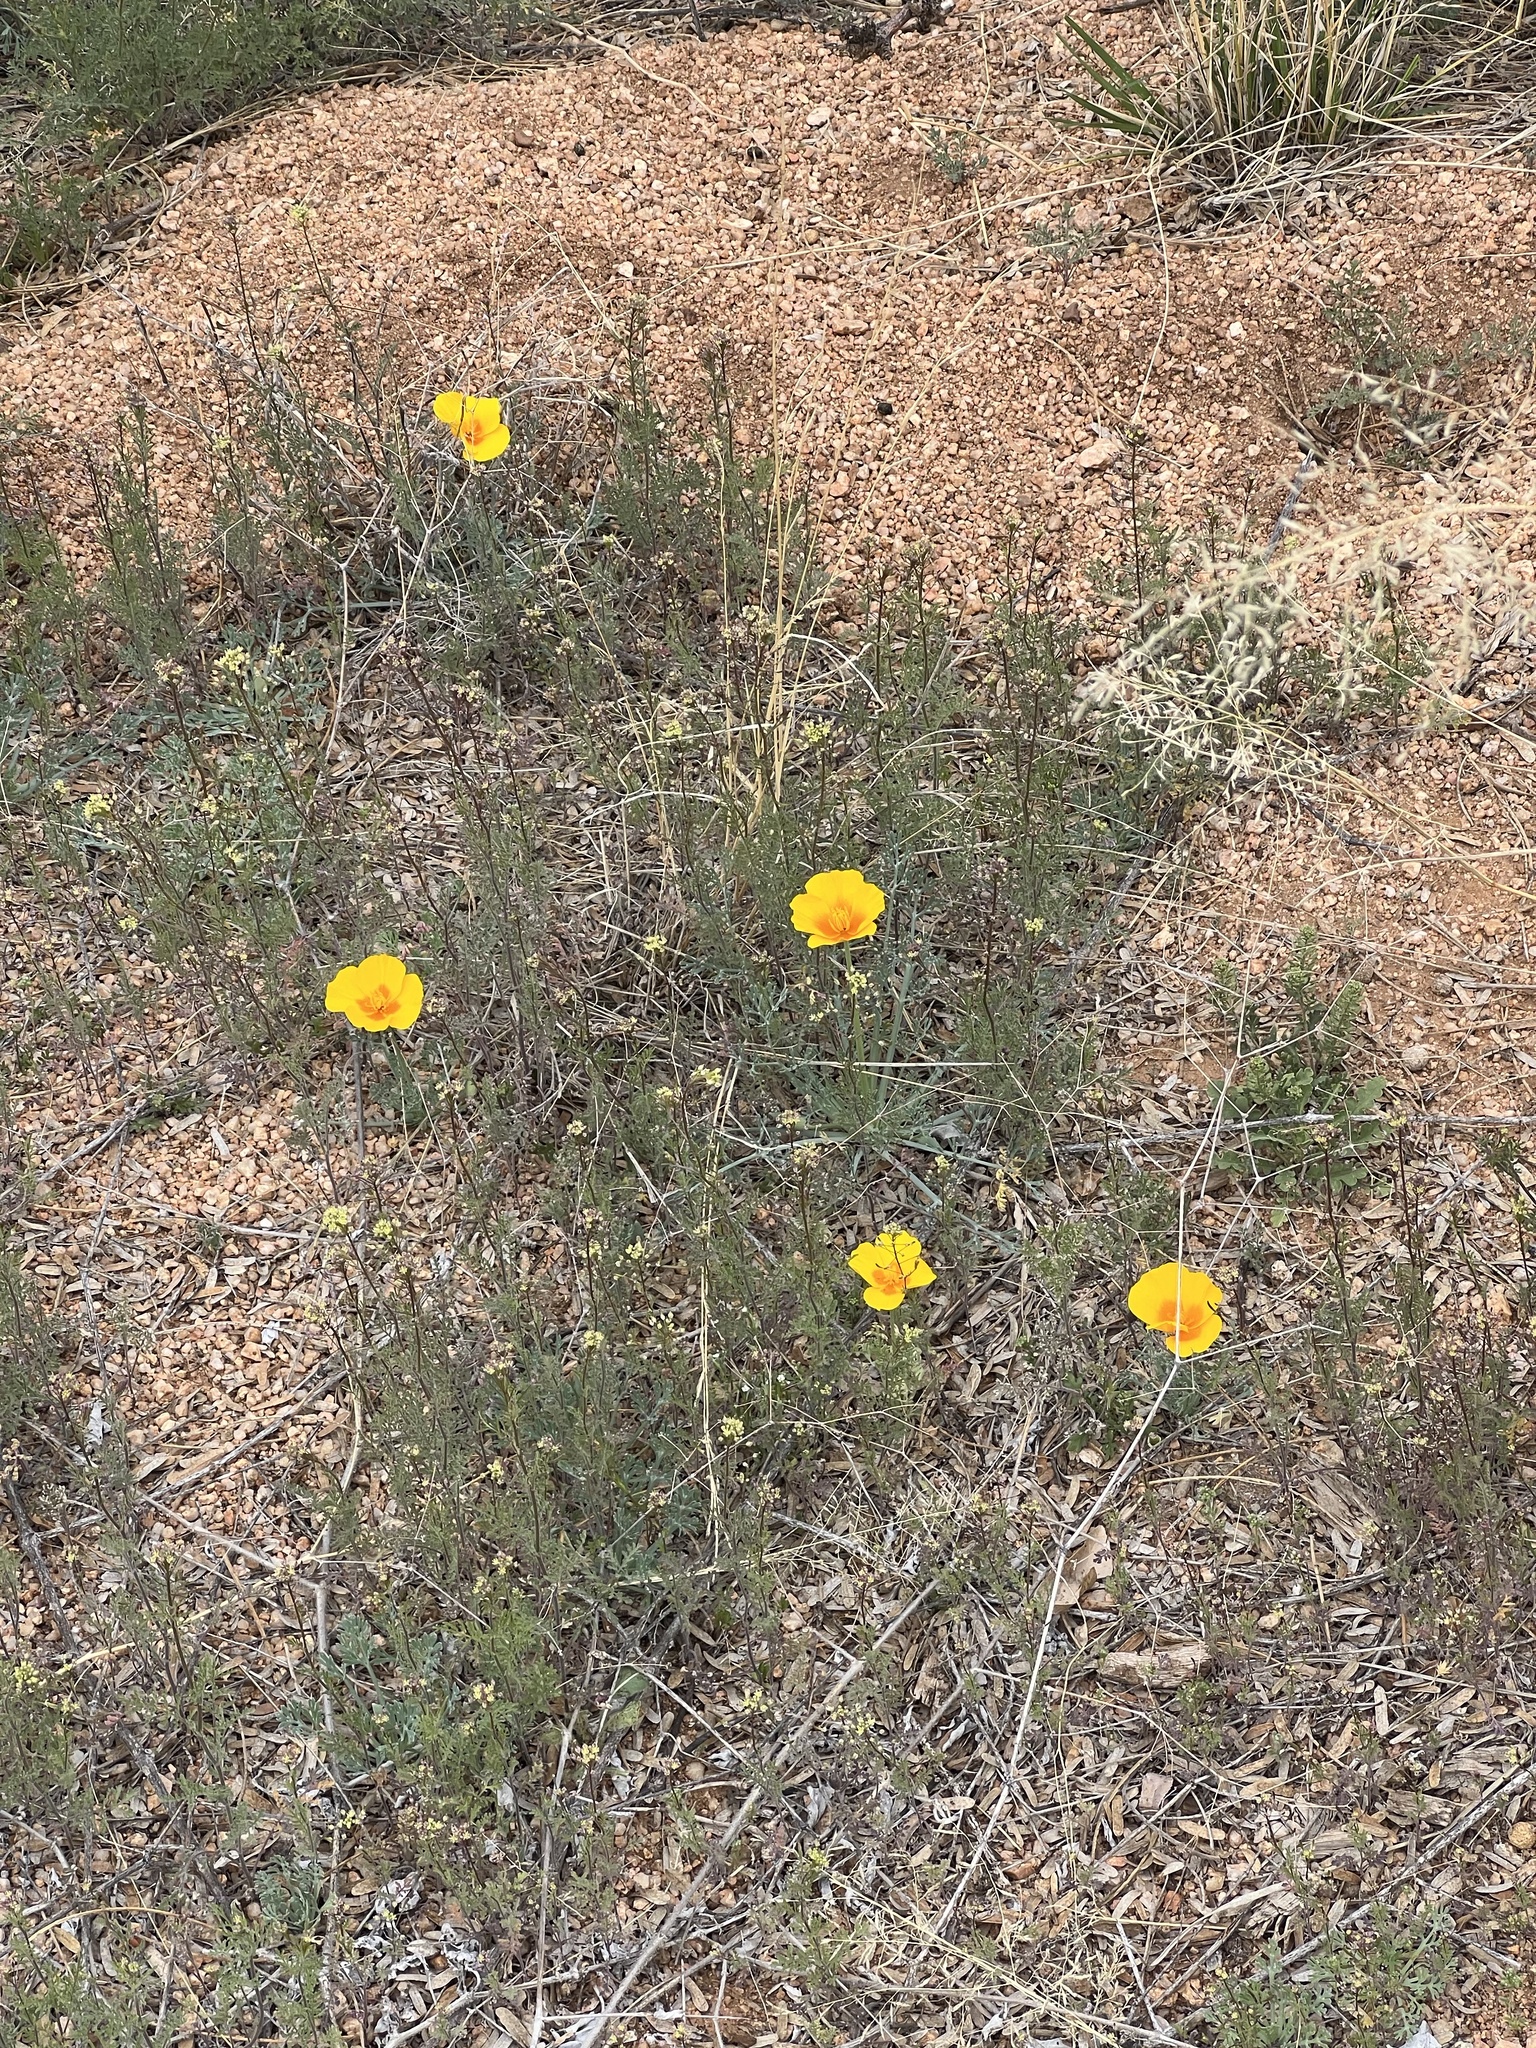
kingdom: Plantae
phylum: Tracheophyta
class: Magnoliopsida
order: Ranunculales
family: Papaveraceae
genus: Eschscholzia
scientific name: Eschscholzia californica
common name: California poppy
